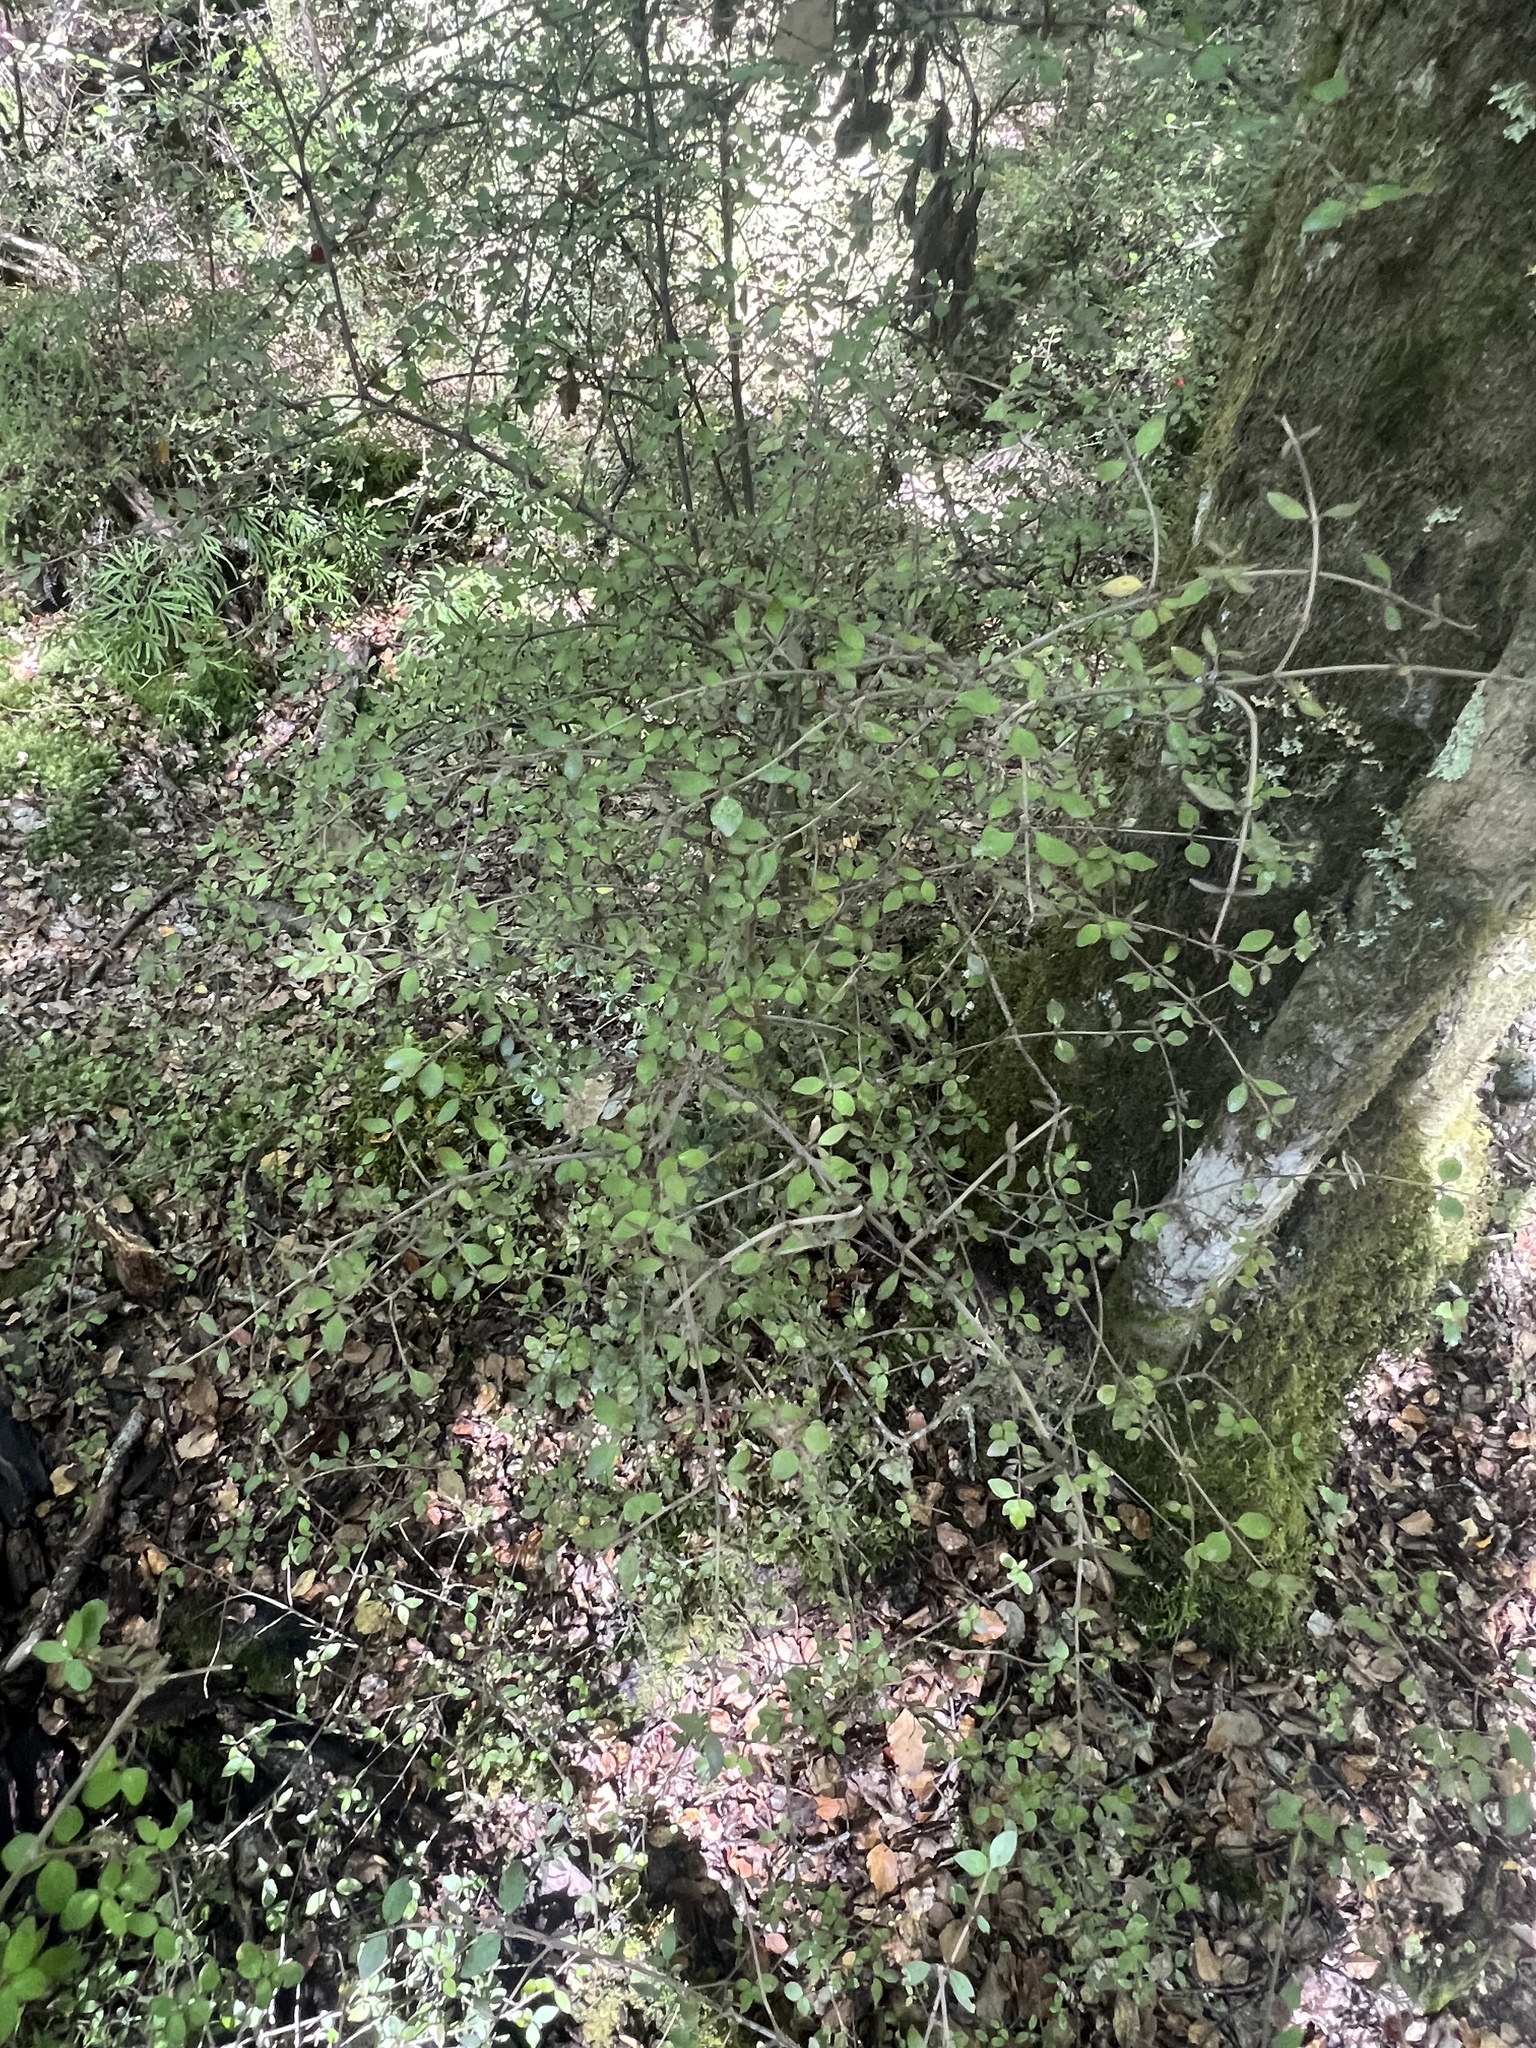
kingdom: Plantae
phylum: Tracheophyta
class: Magnoliopsida
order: Gentianales
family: Rubiaceae
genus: Coprosma
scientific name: Coprosma rhamnoides
